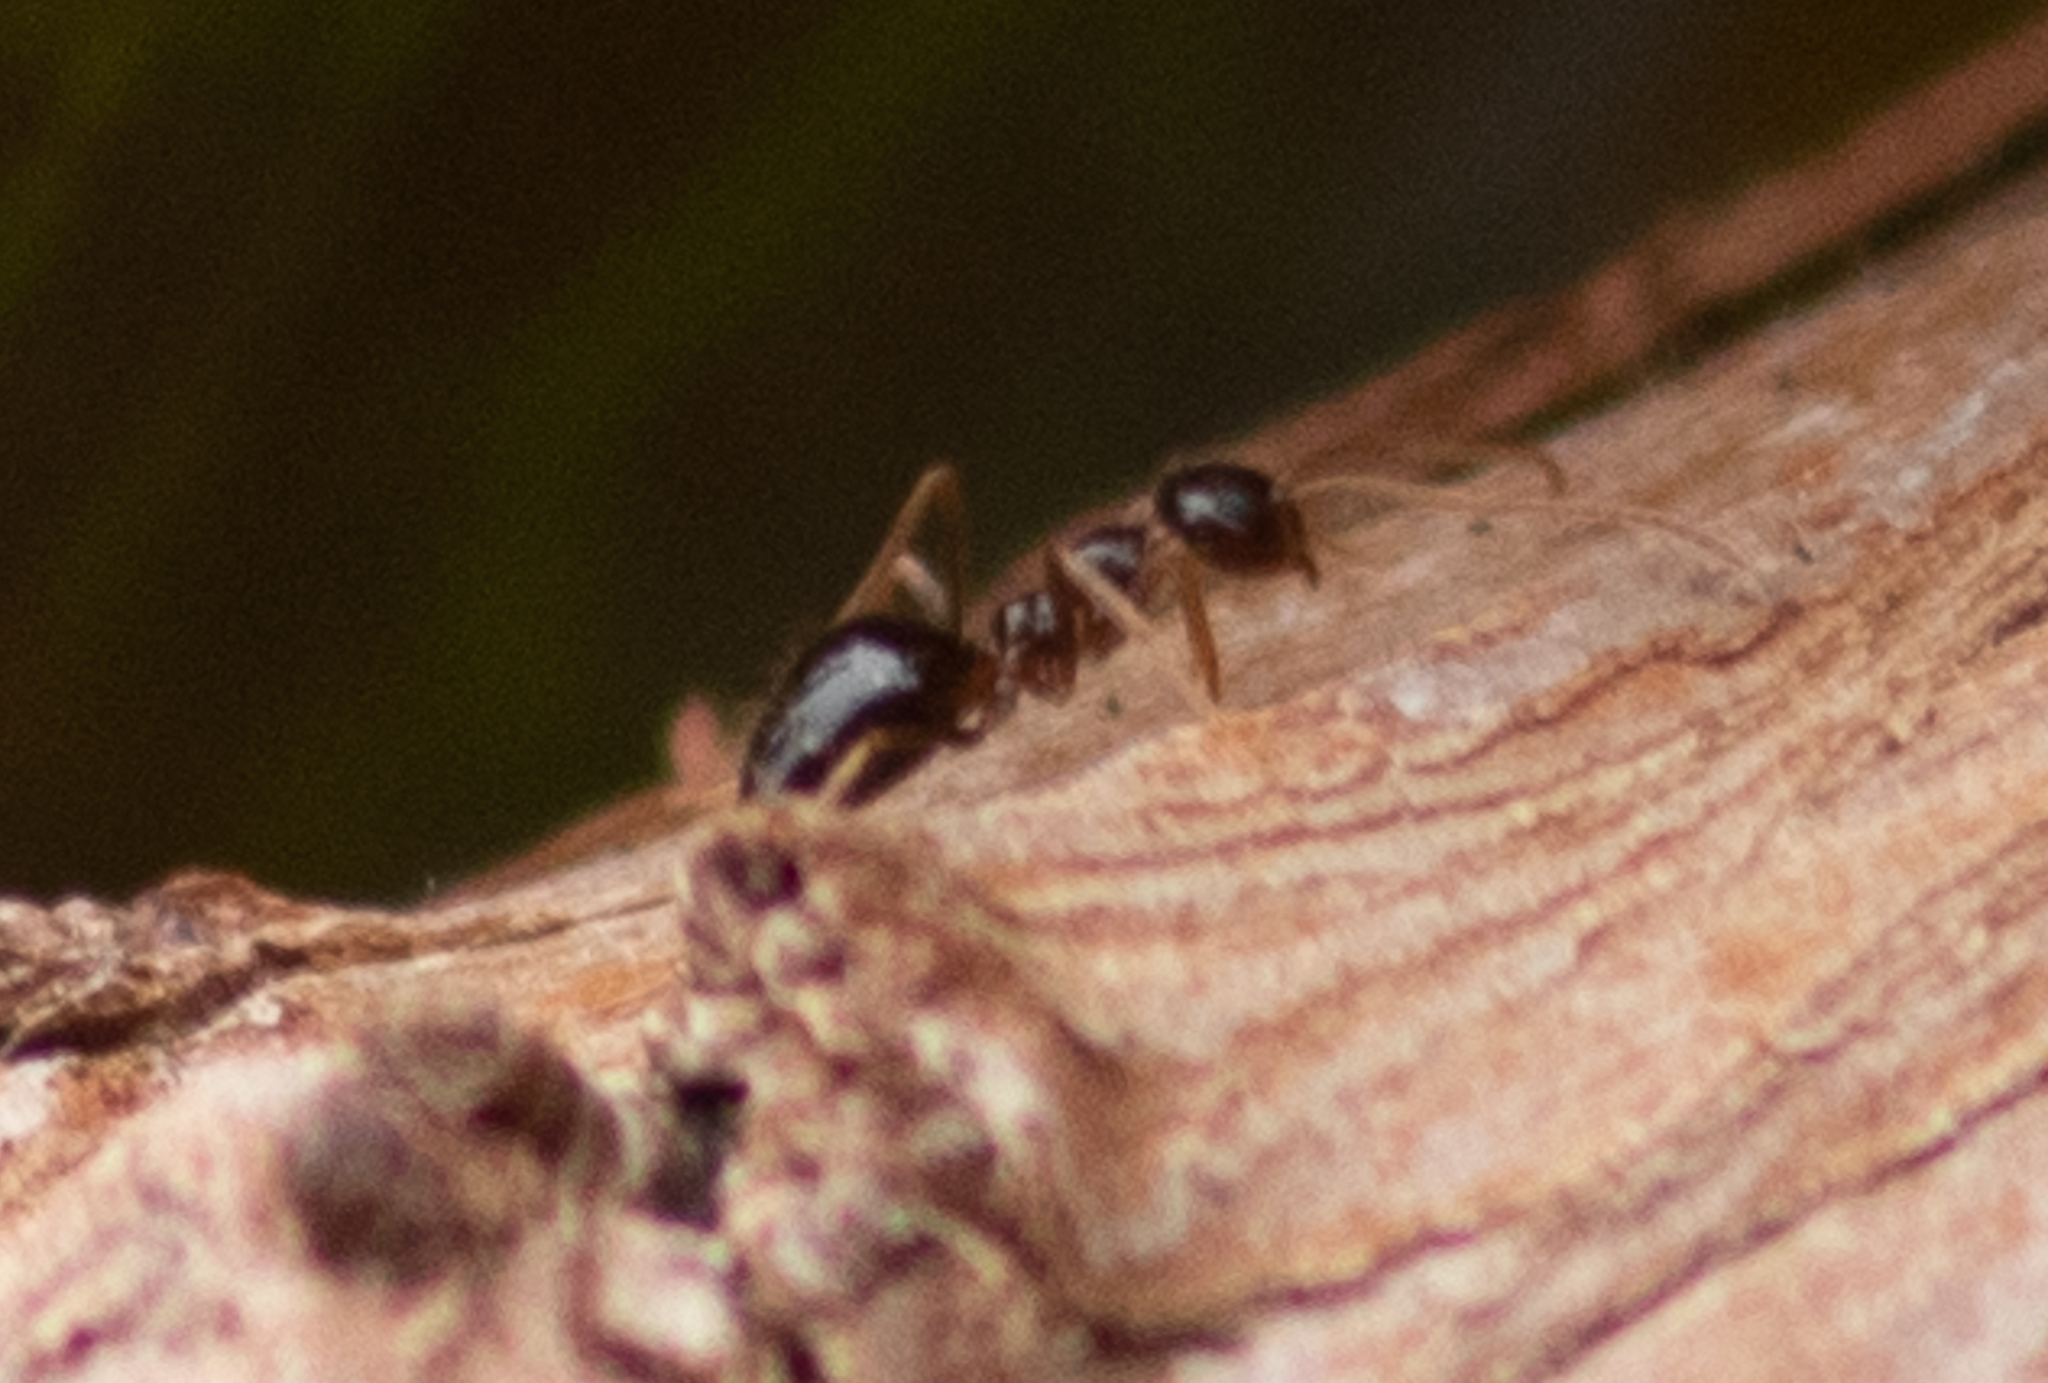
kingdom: Animalia
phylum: Arthropoda
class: Insecta
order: Hymenoptera
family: Formicidae
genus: Prenolepis
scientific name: Prenolepis imparis
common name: Small honey ant
